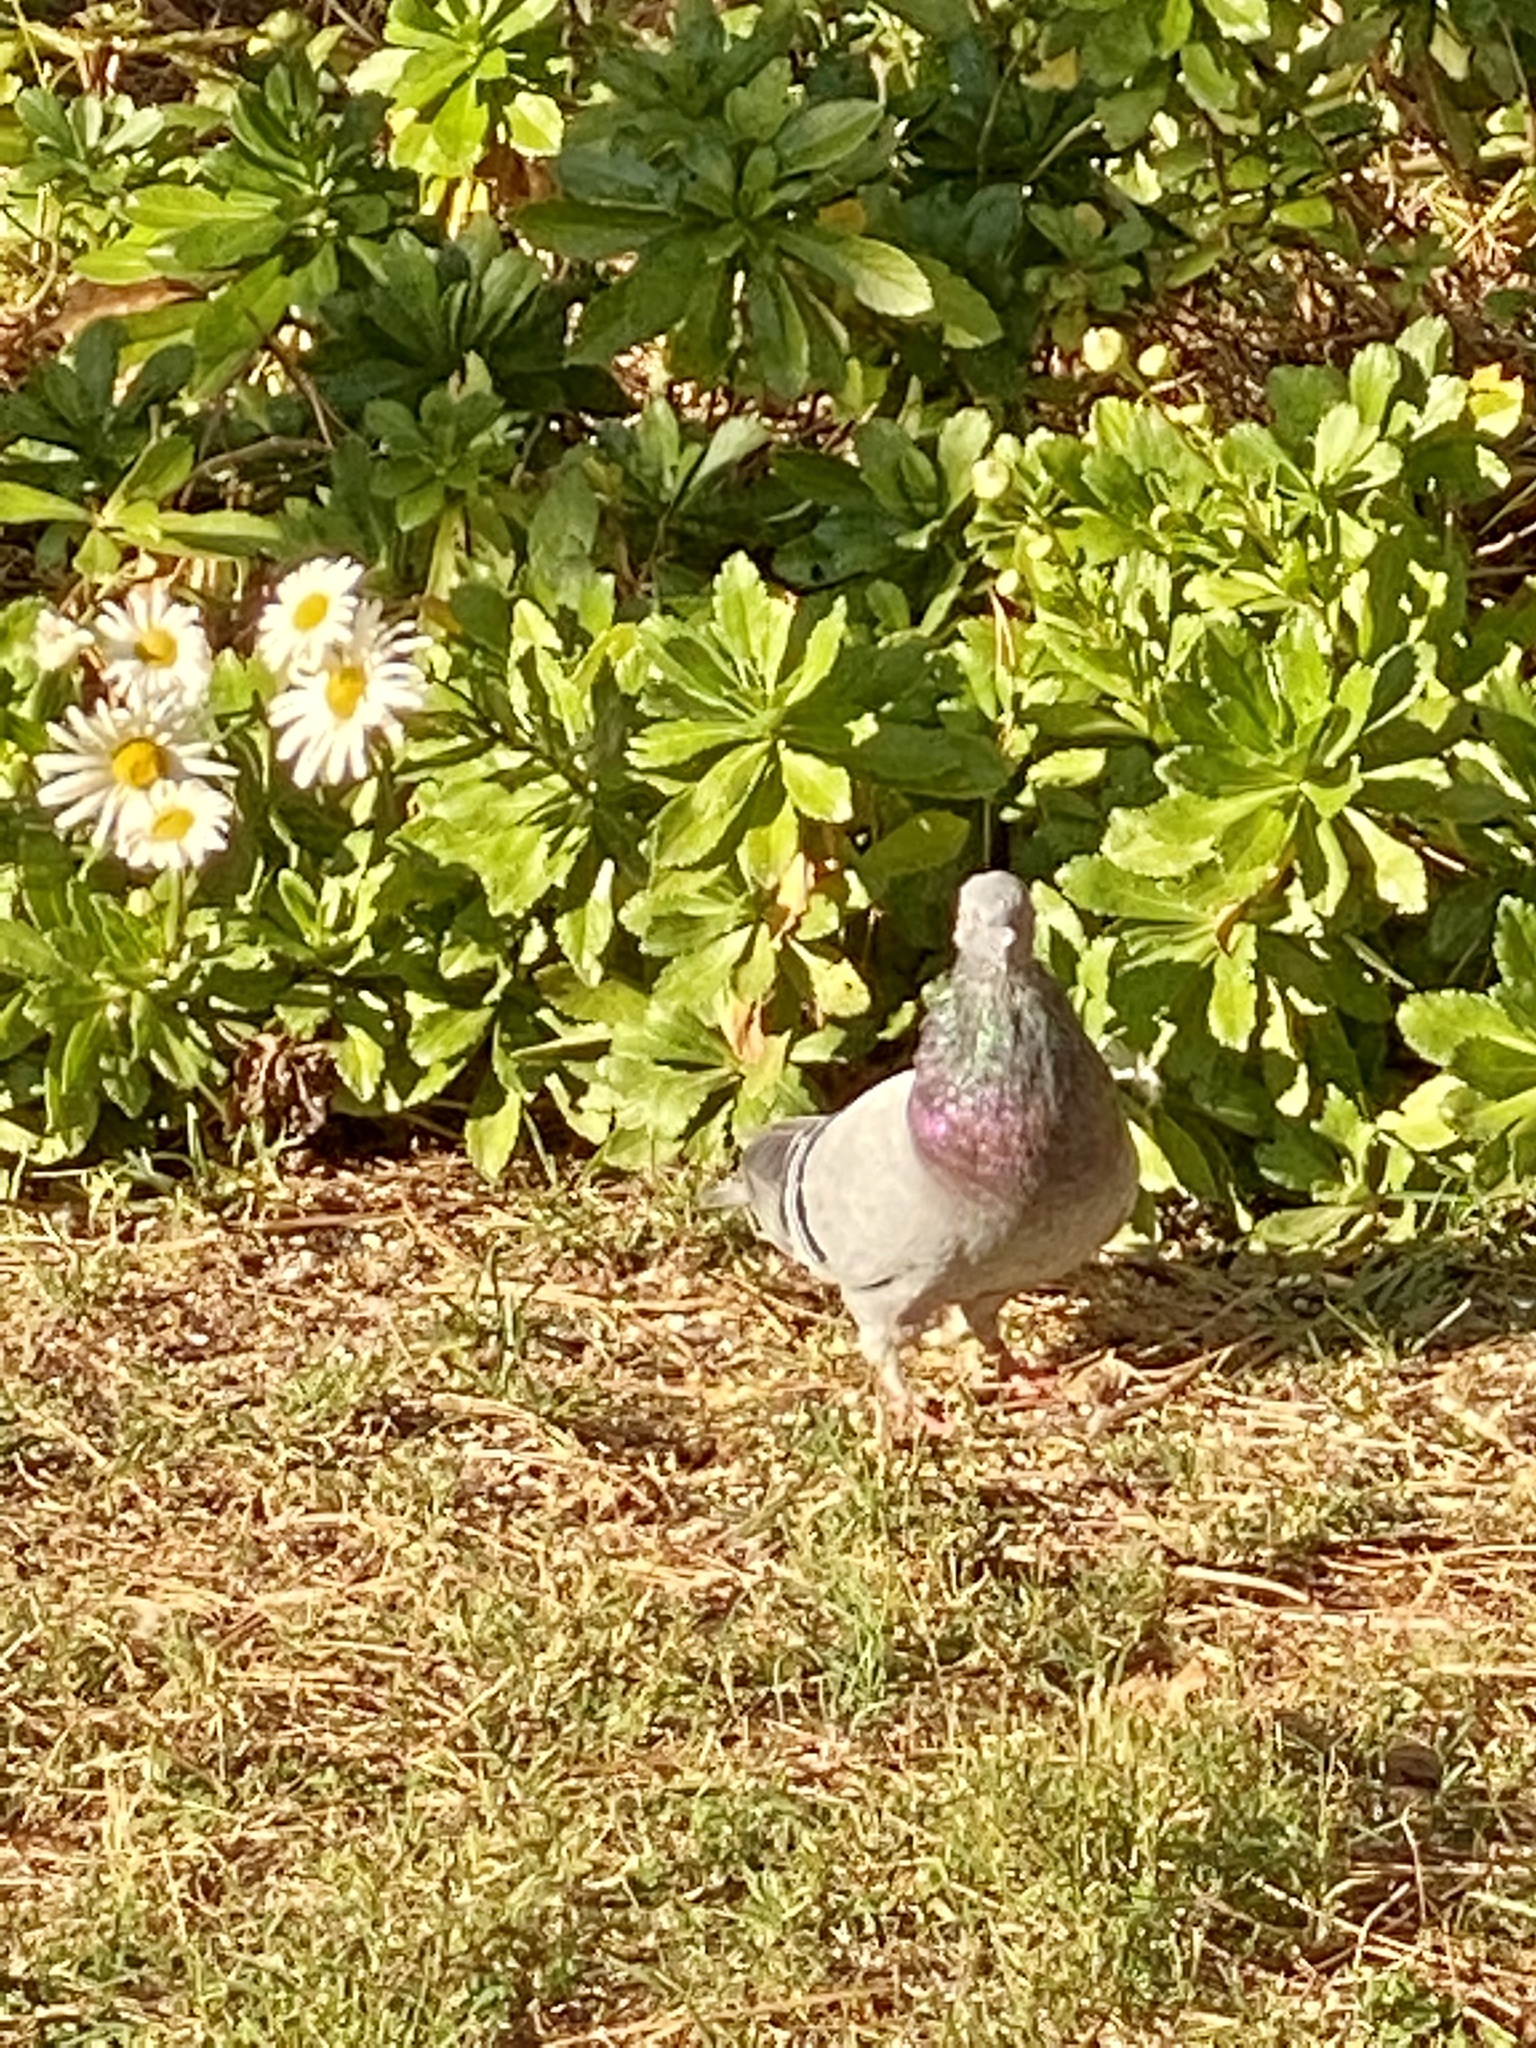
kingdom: Animalia
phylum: Chordata
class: Aves
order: Columbiformes
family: Columbidae
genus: Columba
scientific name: Columba livia
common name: Rock pigeon
